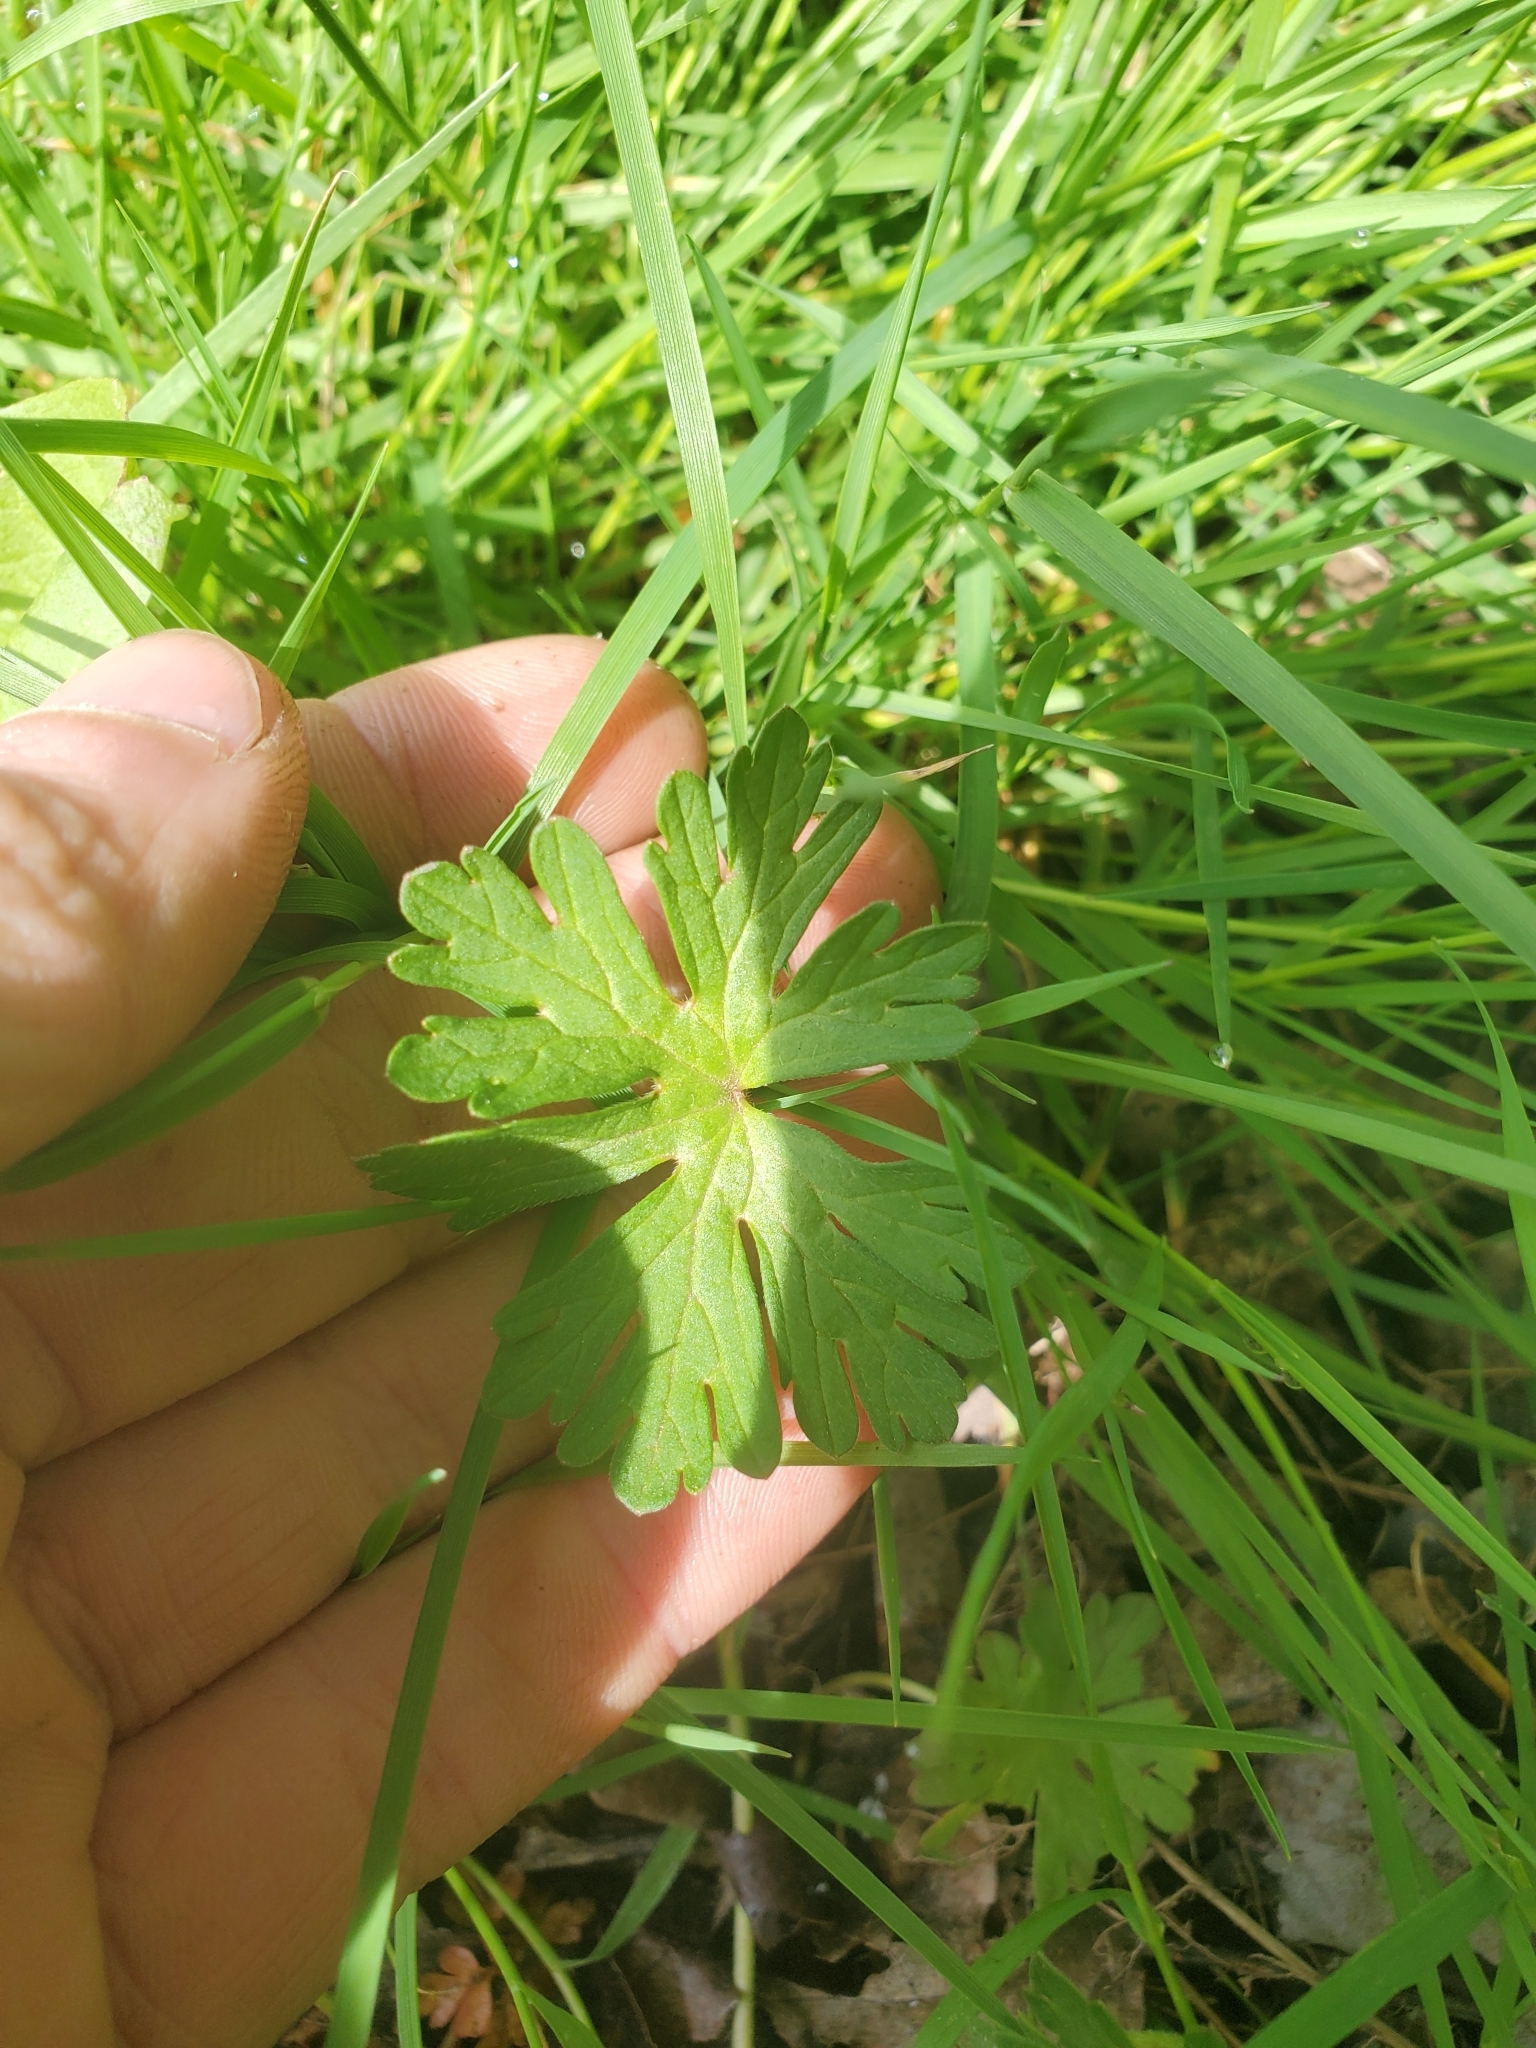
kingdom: Plantae
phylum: Tracheophyta
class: Magnoliopsida
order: Geraniales
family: Geraniaceae
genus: Geranium
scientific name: Geranium molle
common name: Dove's-foot crane's-bill
